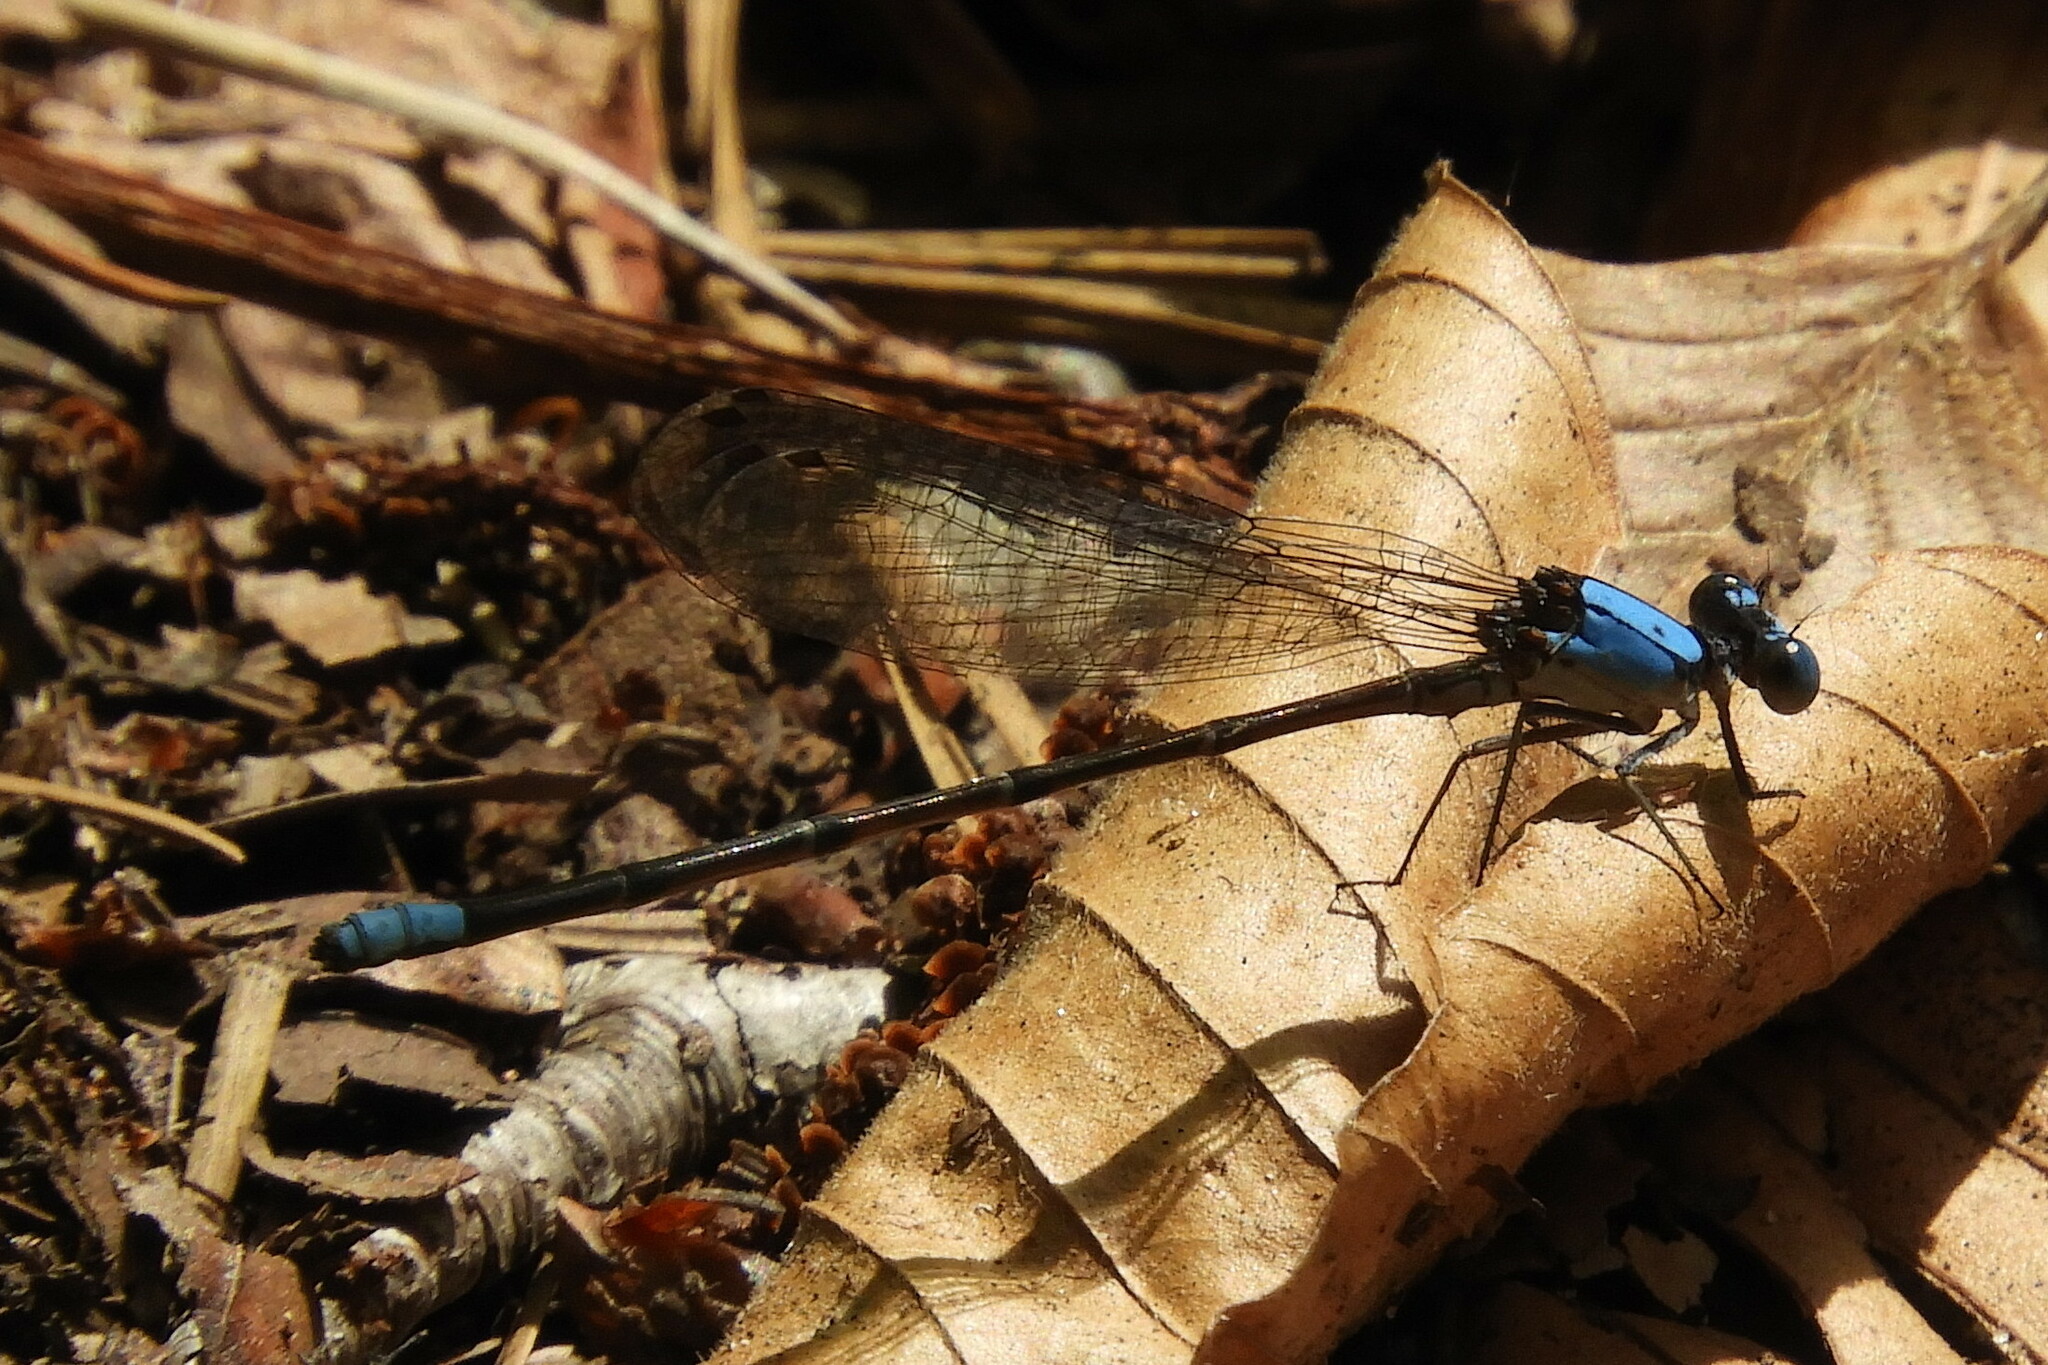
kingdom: Animalia
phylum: Arthropoda
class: Insecta
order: Odonata
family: Coenagrionidae
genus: Argia
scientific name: Argia apicalis
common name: Blue-fronted dancer
